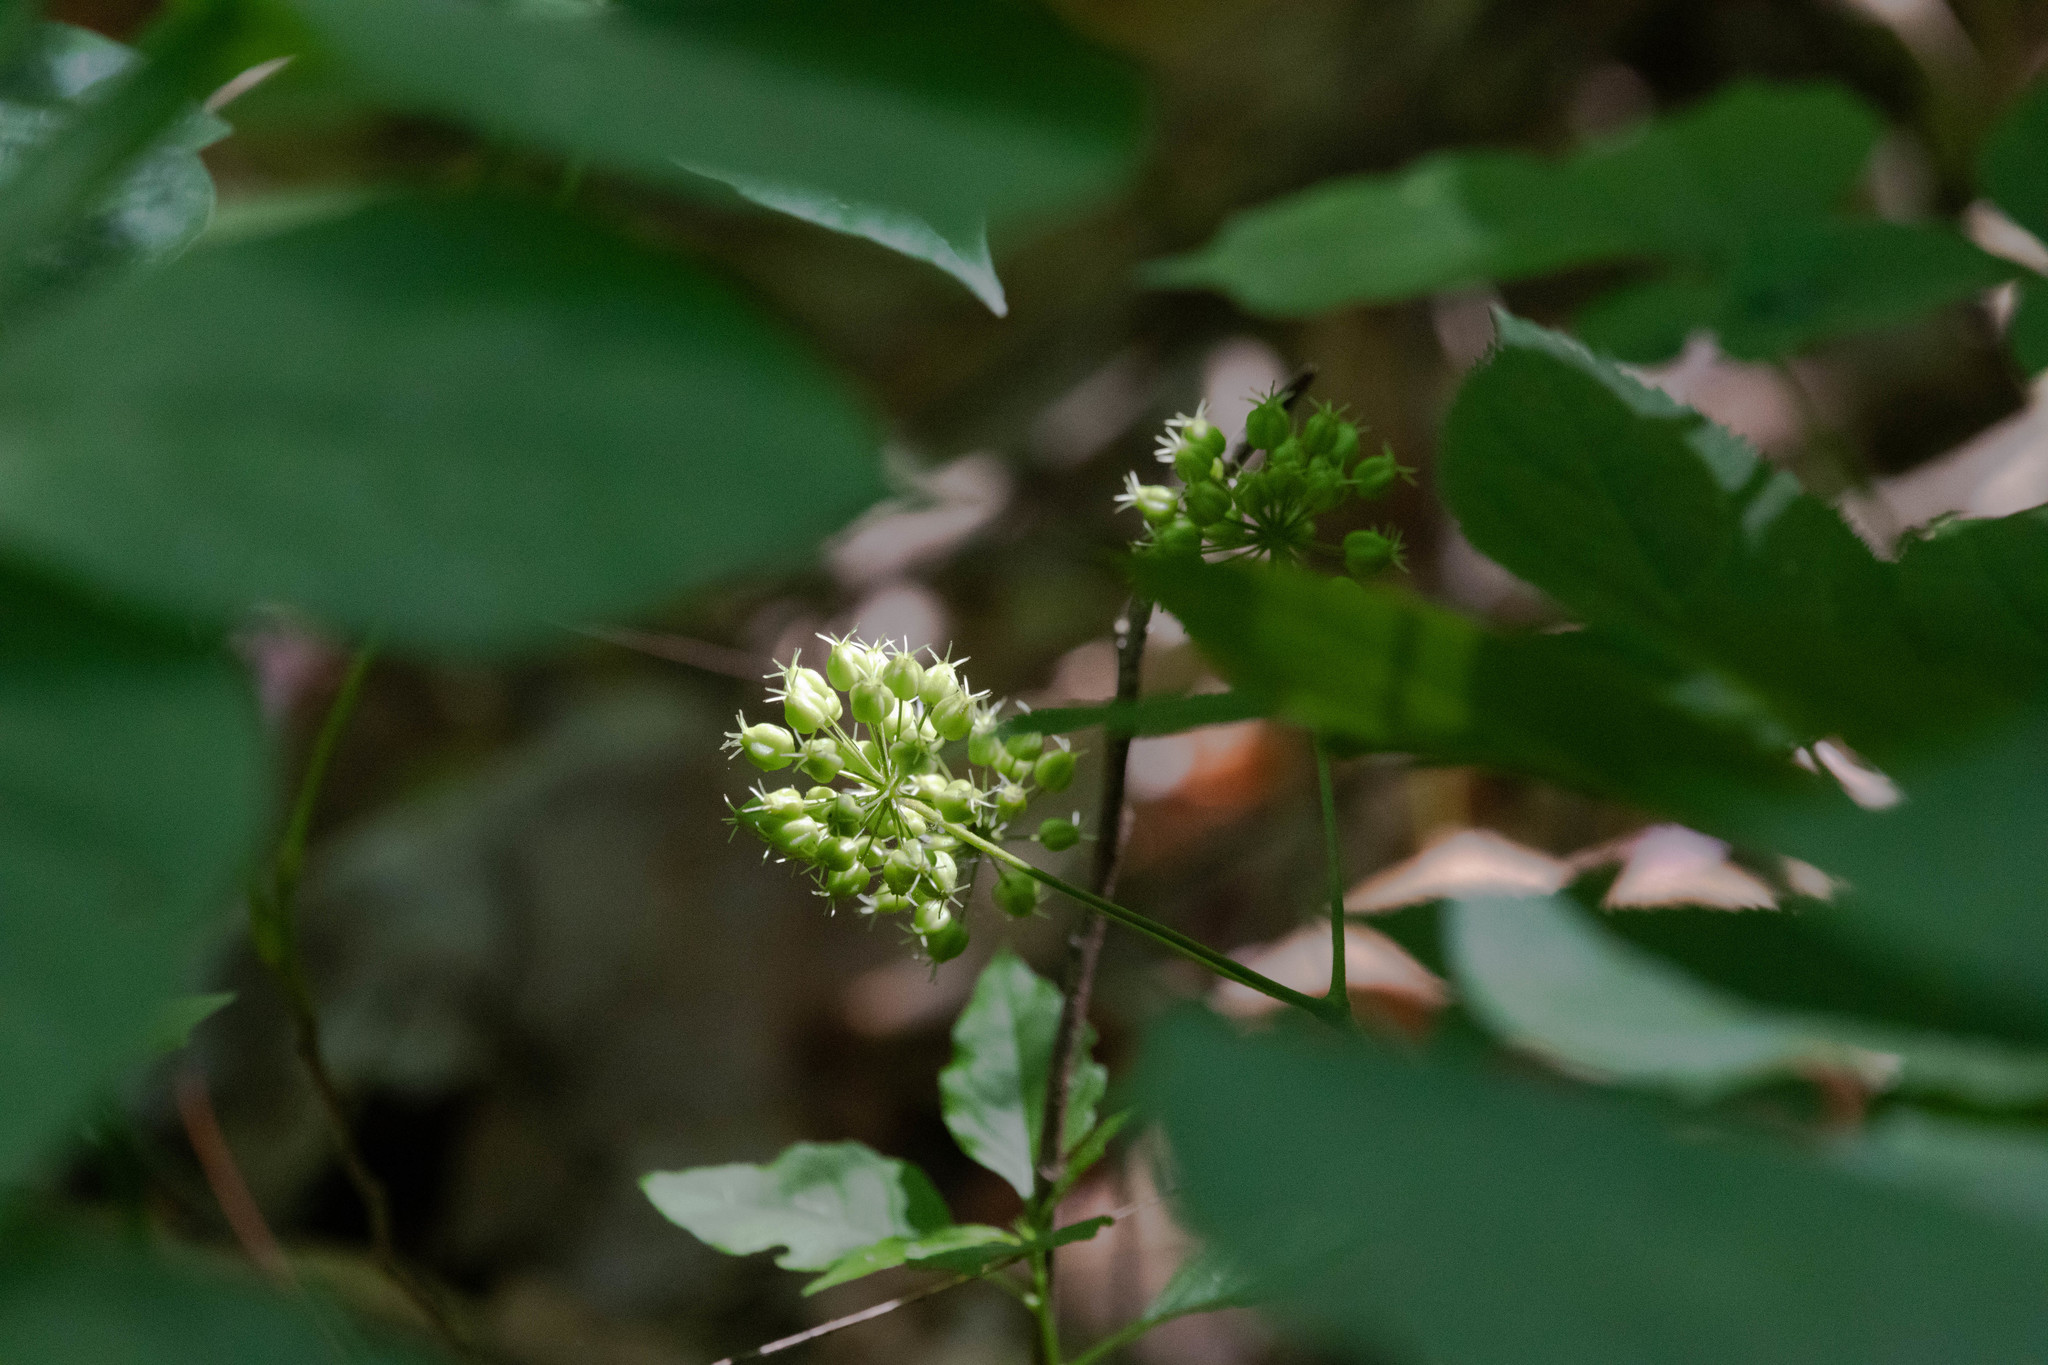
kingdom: Plantae
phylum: Tracheophyta
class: Magnoliopsida
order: Apiales
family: Araliaceae
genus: Aralia
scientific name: Aralia nudicaulis
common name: Wild sarsaparilla
